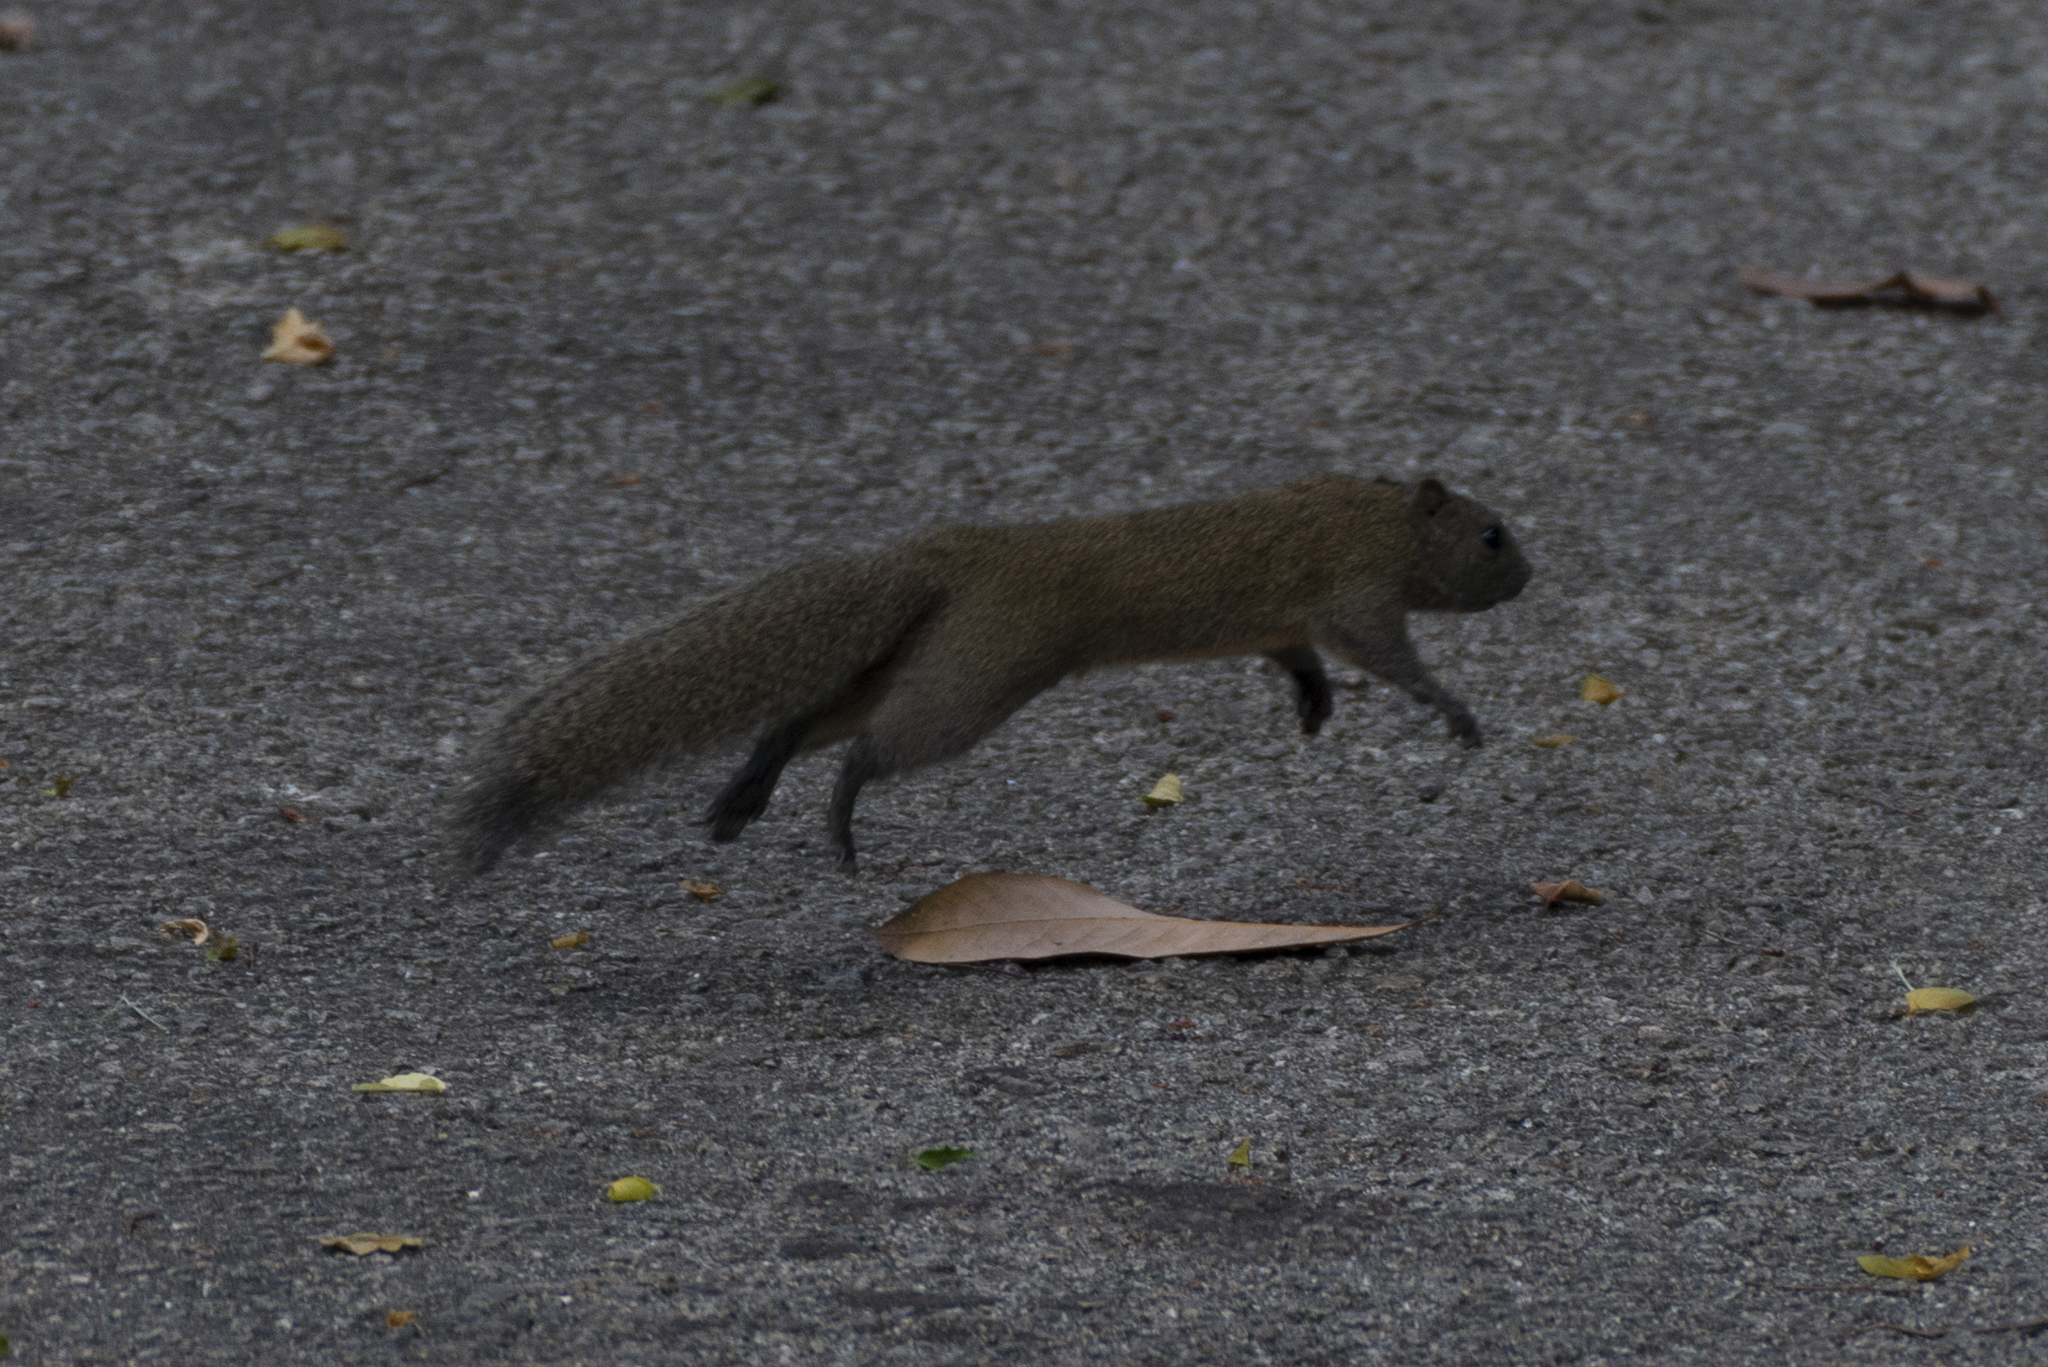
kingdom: Animalia
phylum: Chordata
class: Mammalia
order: Rodentia
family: Sciuridae
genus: Callosciurus
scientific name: Callosciurus erythraeus
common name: Pallas's squirrel
